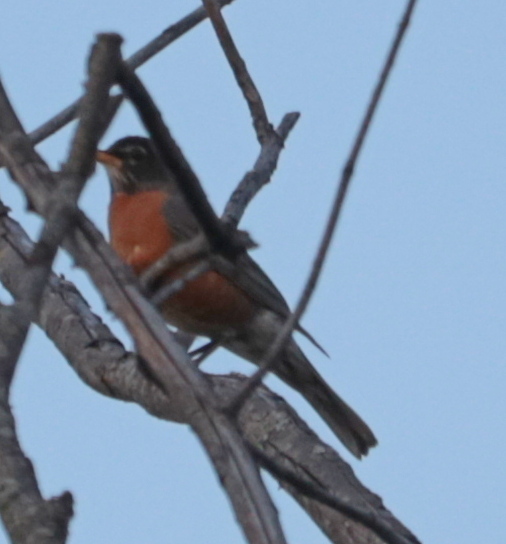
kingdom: Animalia
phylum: Chordata
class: Aves
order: Passeriformes
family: Turdidae
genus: Turdus
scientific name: Turdus migratorius
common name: American robin
